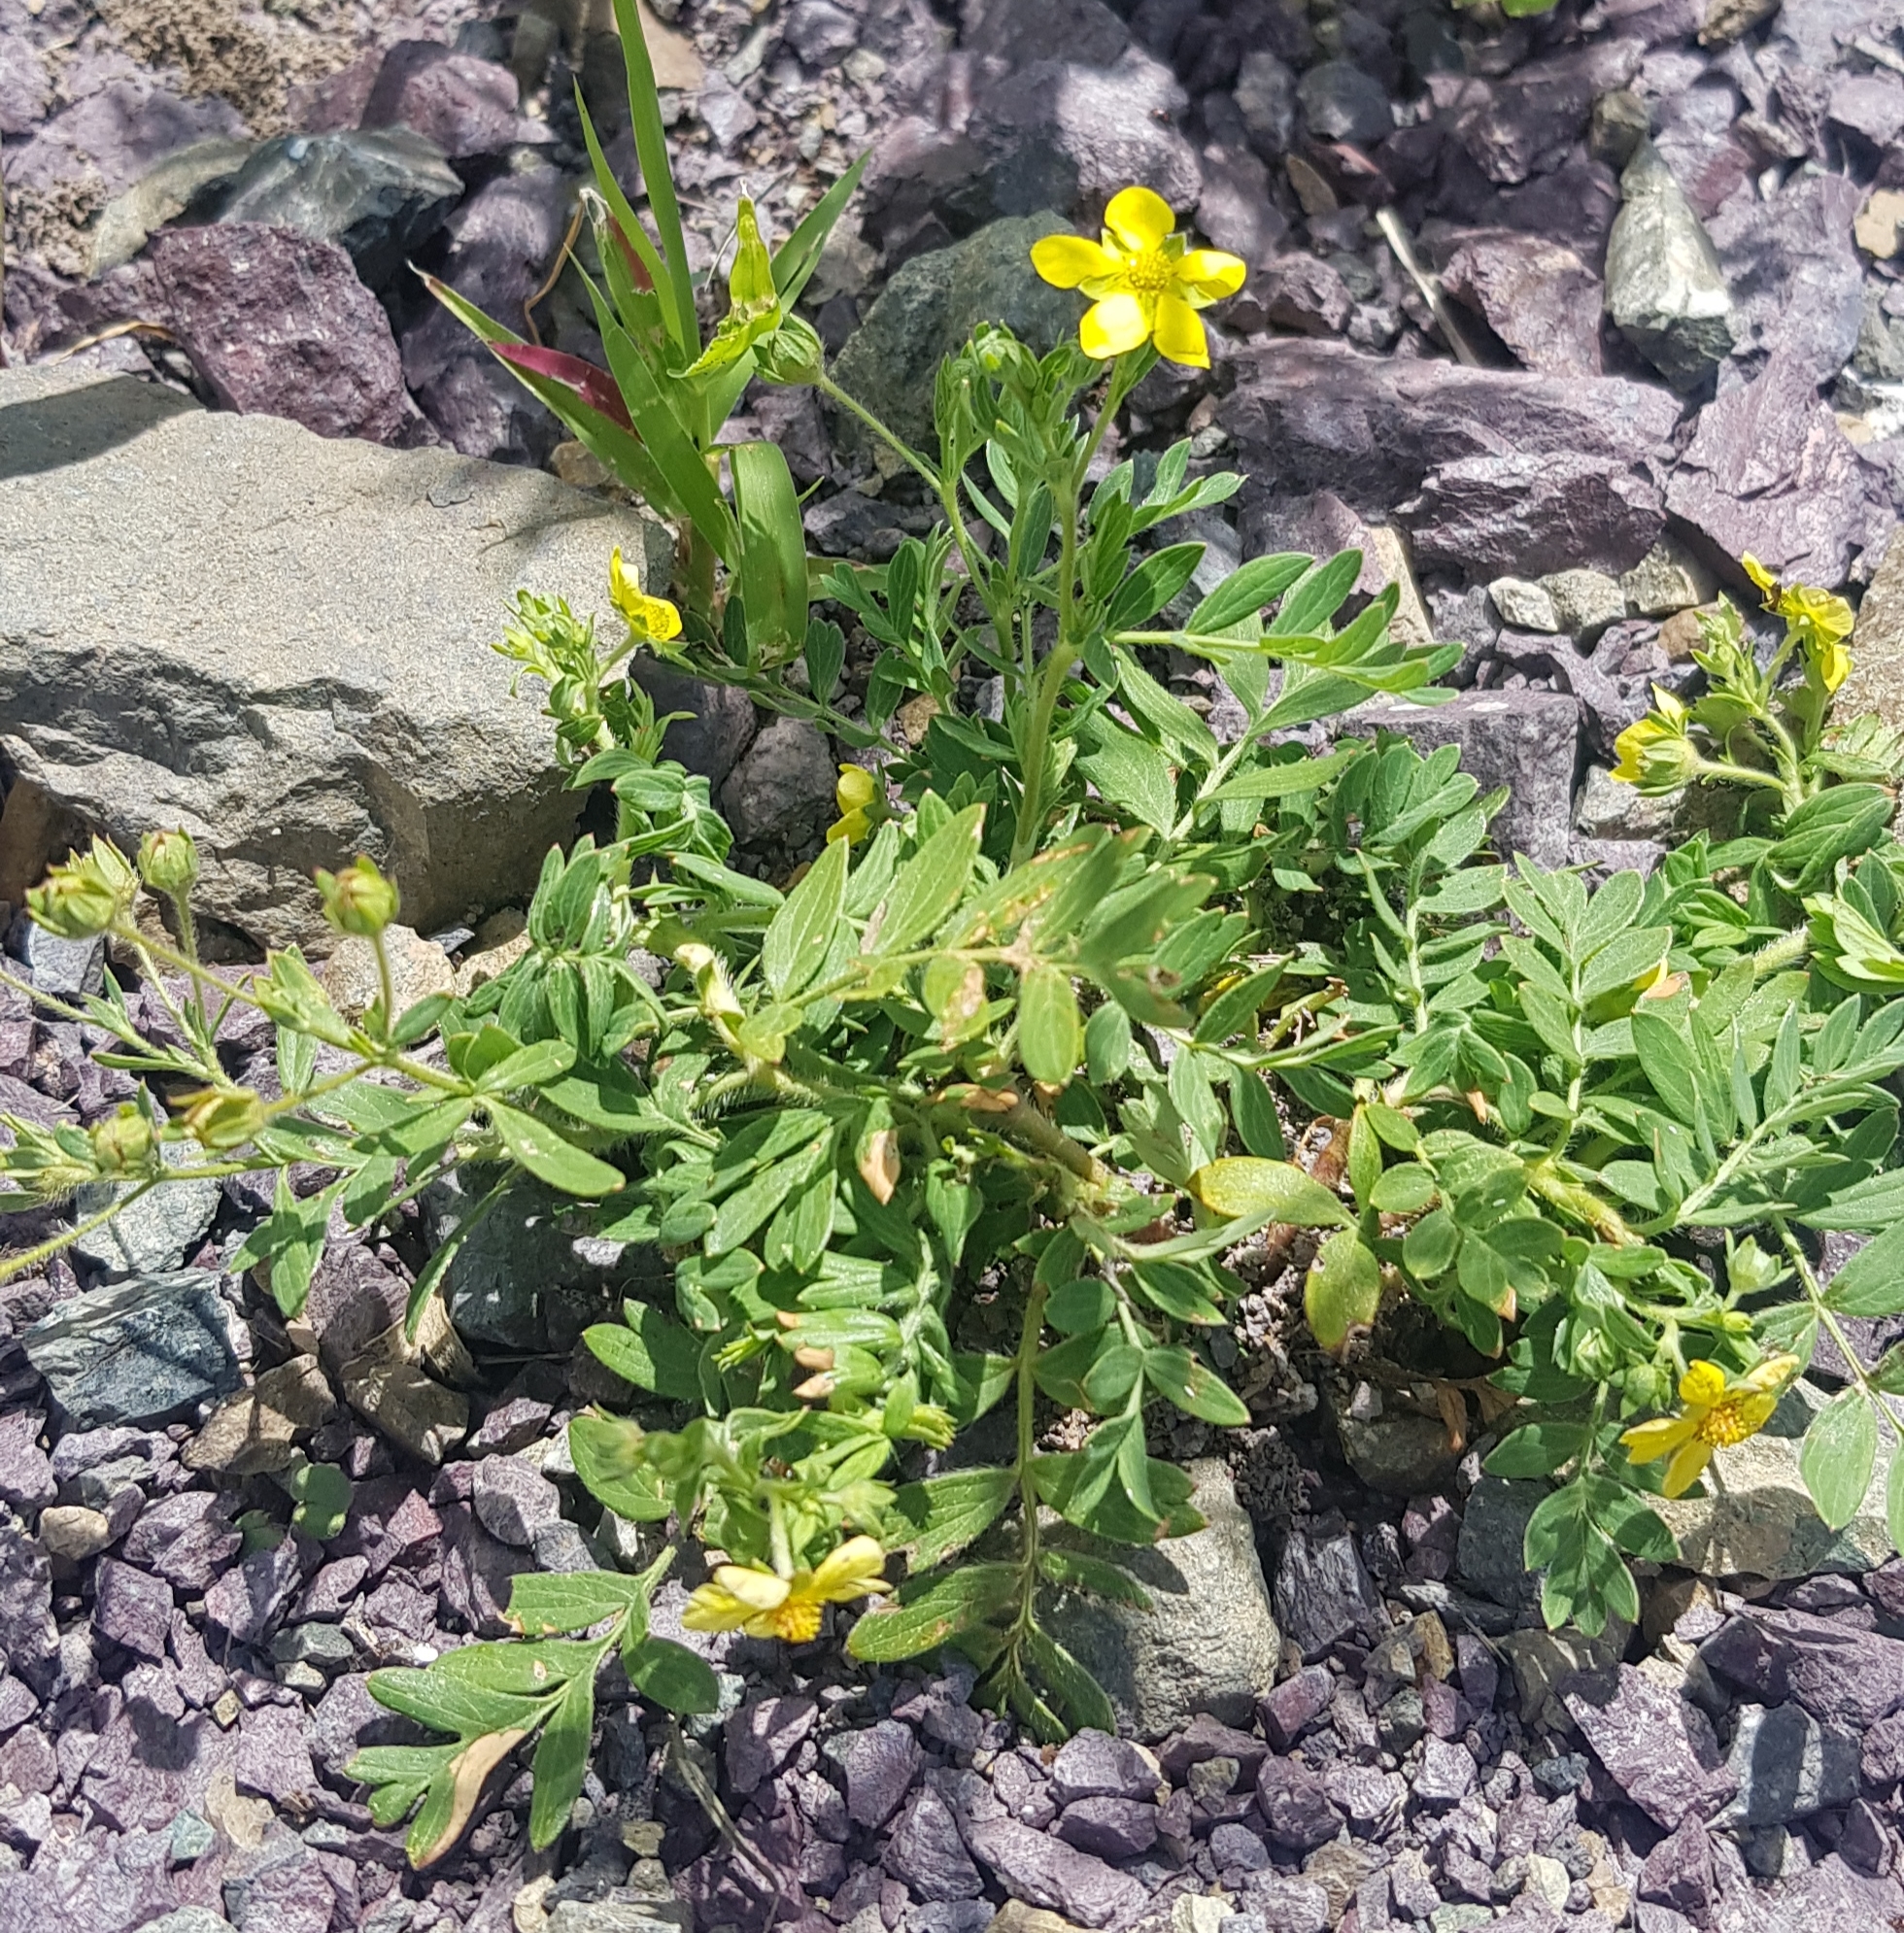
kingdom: Plantae
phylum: Tracheophyta
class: Magnoliopsida
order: Rosales
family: Rosaceae
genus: Sibbaldianthe
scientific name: Sibbaldianthe bifurca
